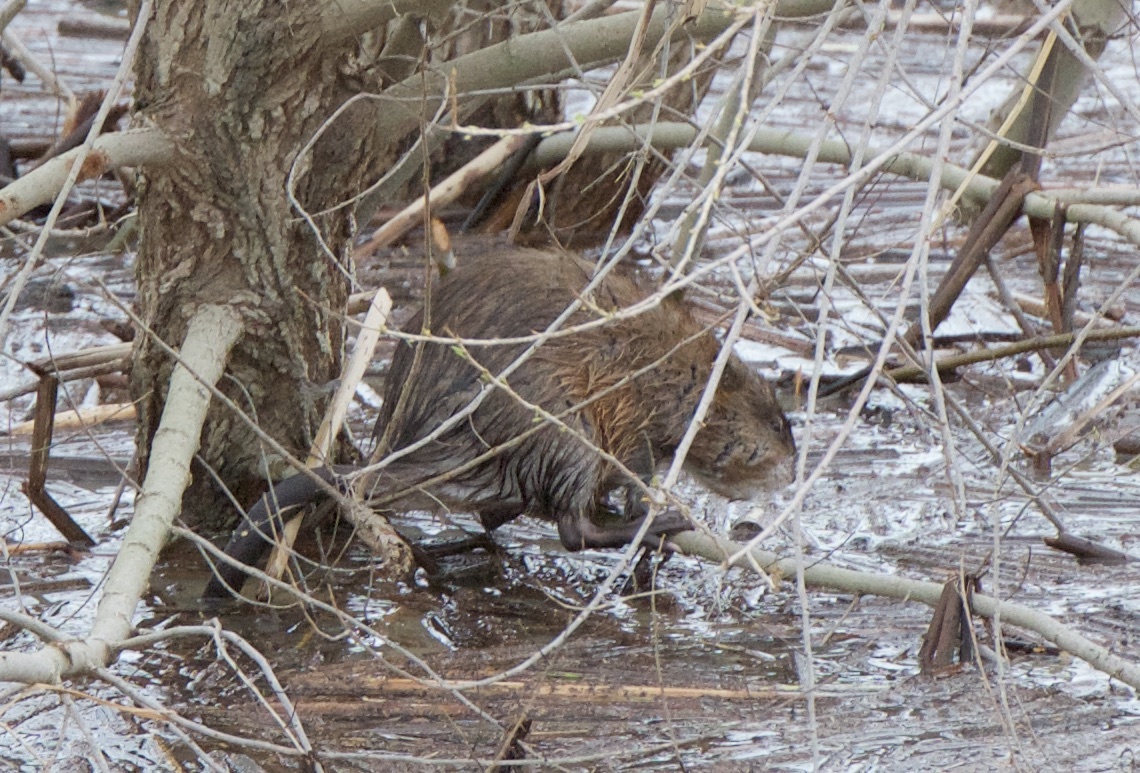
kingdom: Animalia
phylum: Chordata
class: Mammalia
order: Rodentia
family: Cricetidae
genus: Ondatra
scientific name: Ondatra zibethicus
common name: Muskrat
